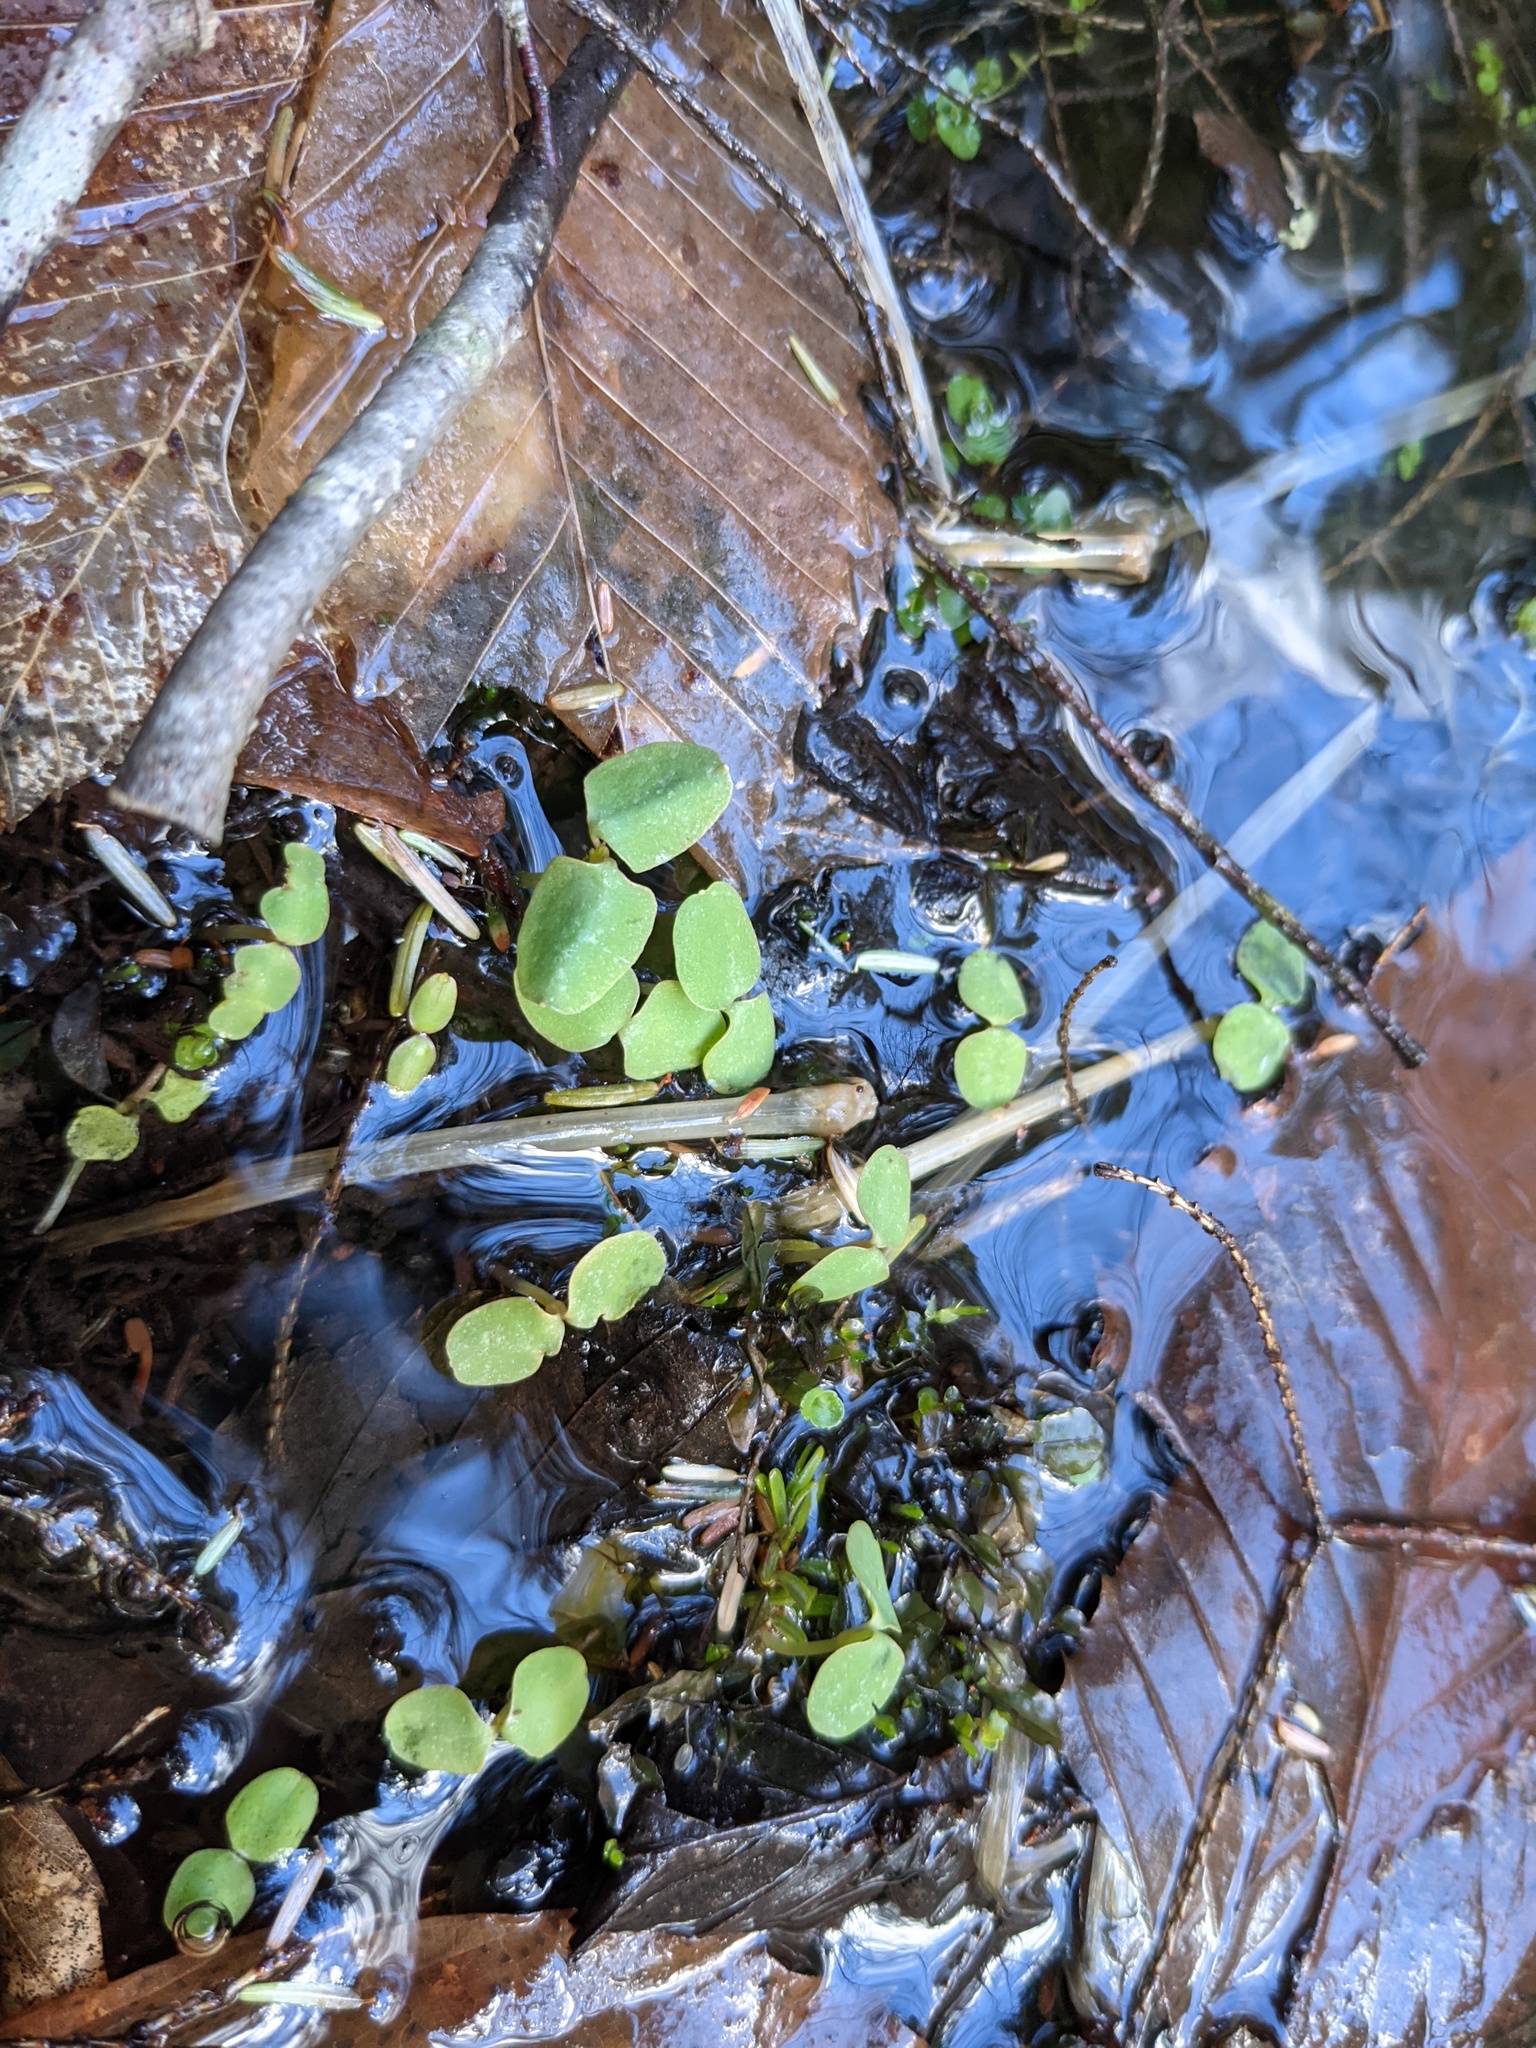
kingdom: Plantae
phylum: Tracheophyta
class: Magnoliopsida
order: Ericales
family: Balsaminaceae
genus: Impatiens
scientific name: Impatiens
